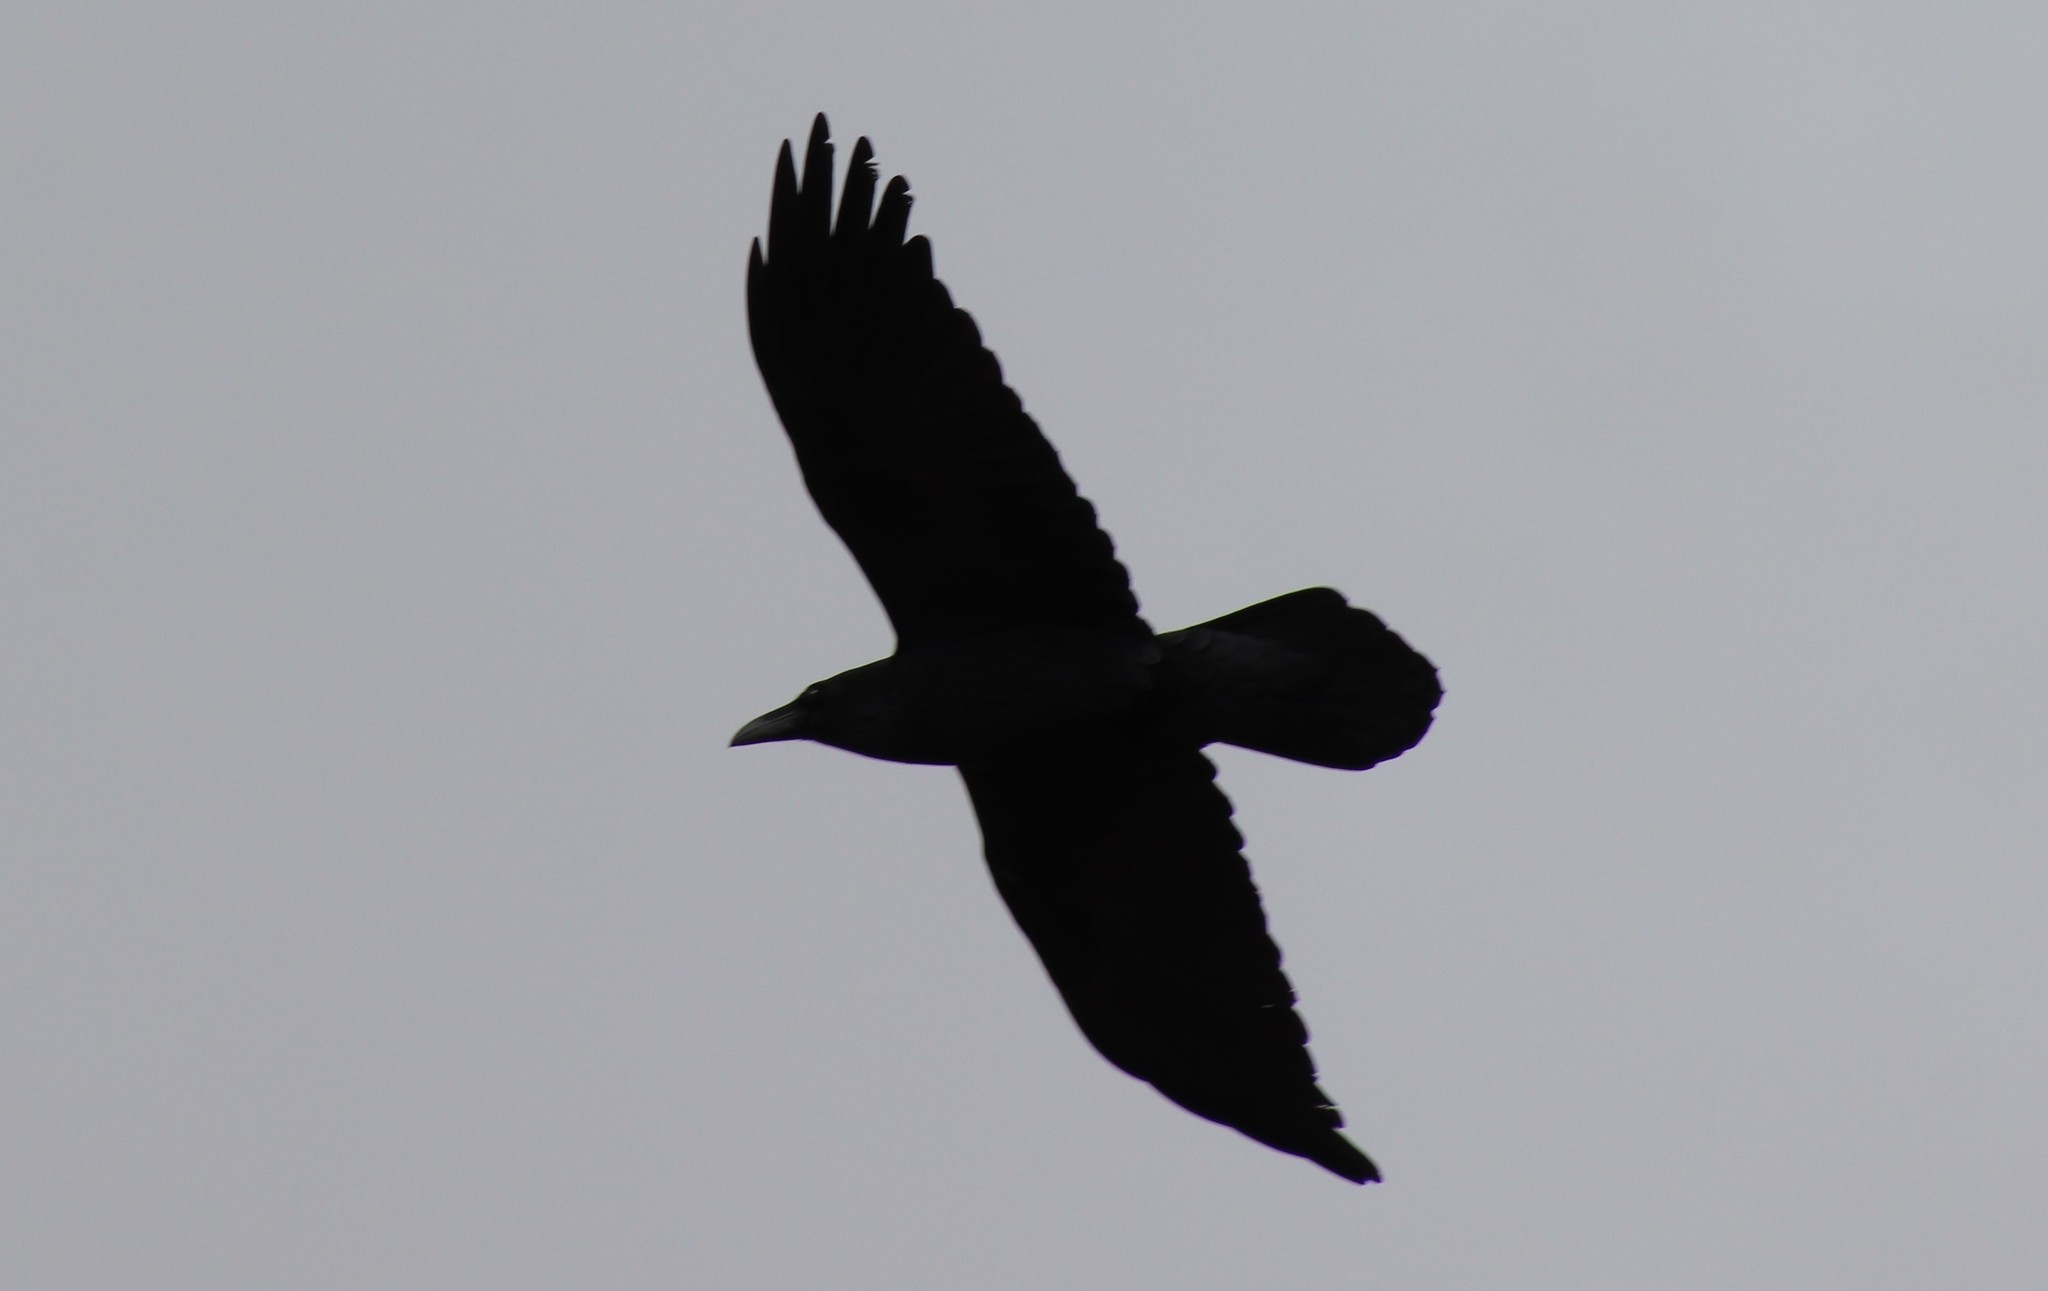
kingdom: Animalia
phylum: Chordata
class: Aves
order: Passeriformes
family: Corvidae
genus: Corvus
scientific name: Corvus corax
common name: Common raven
